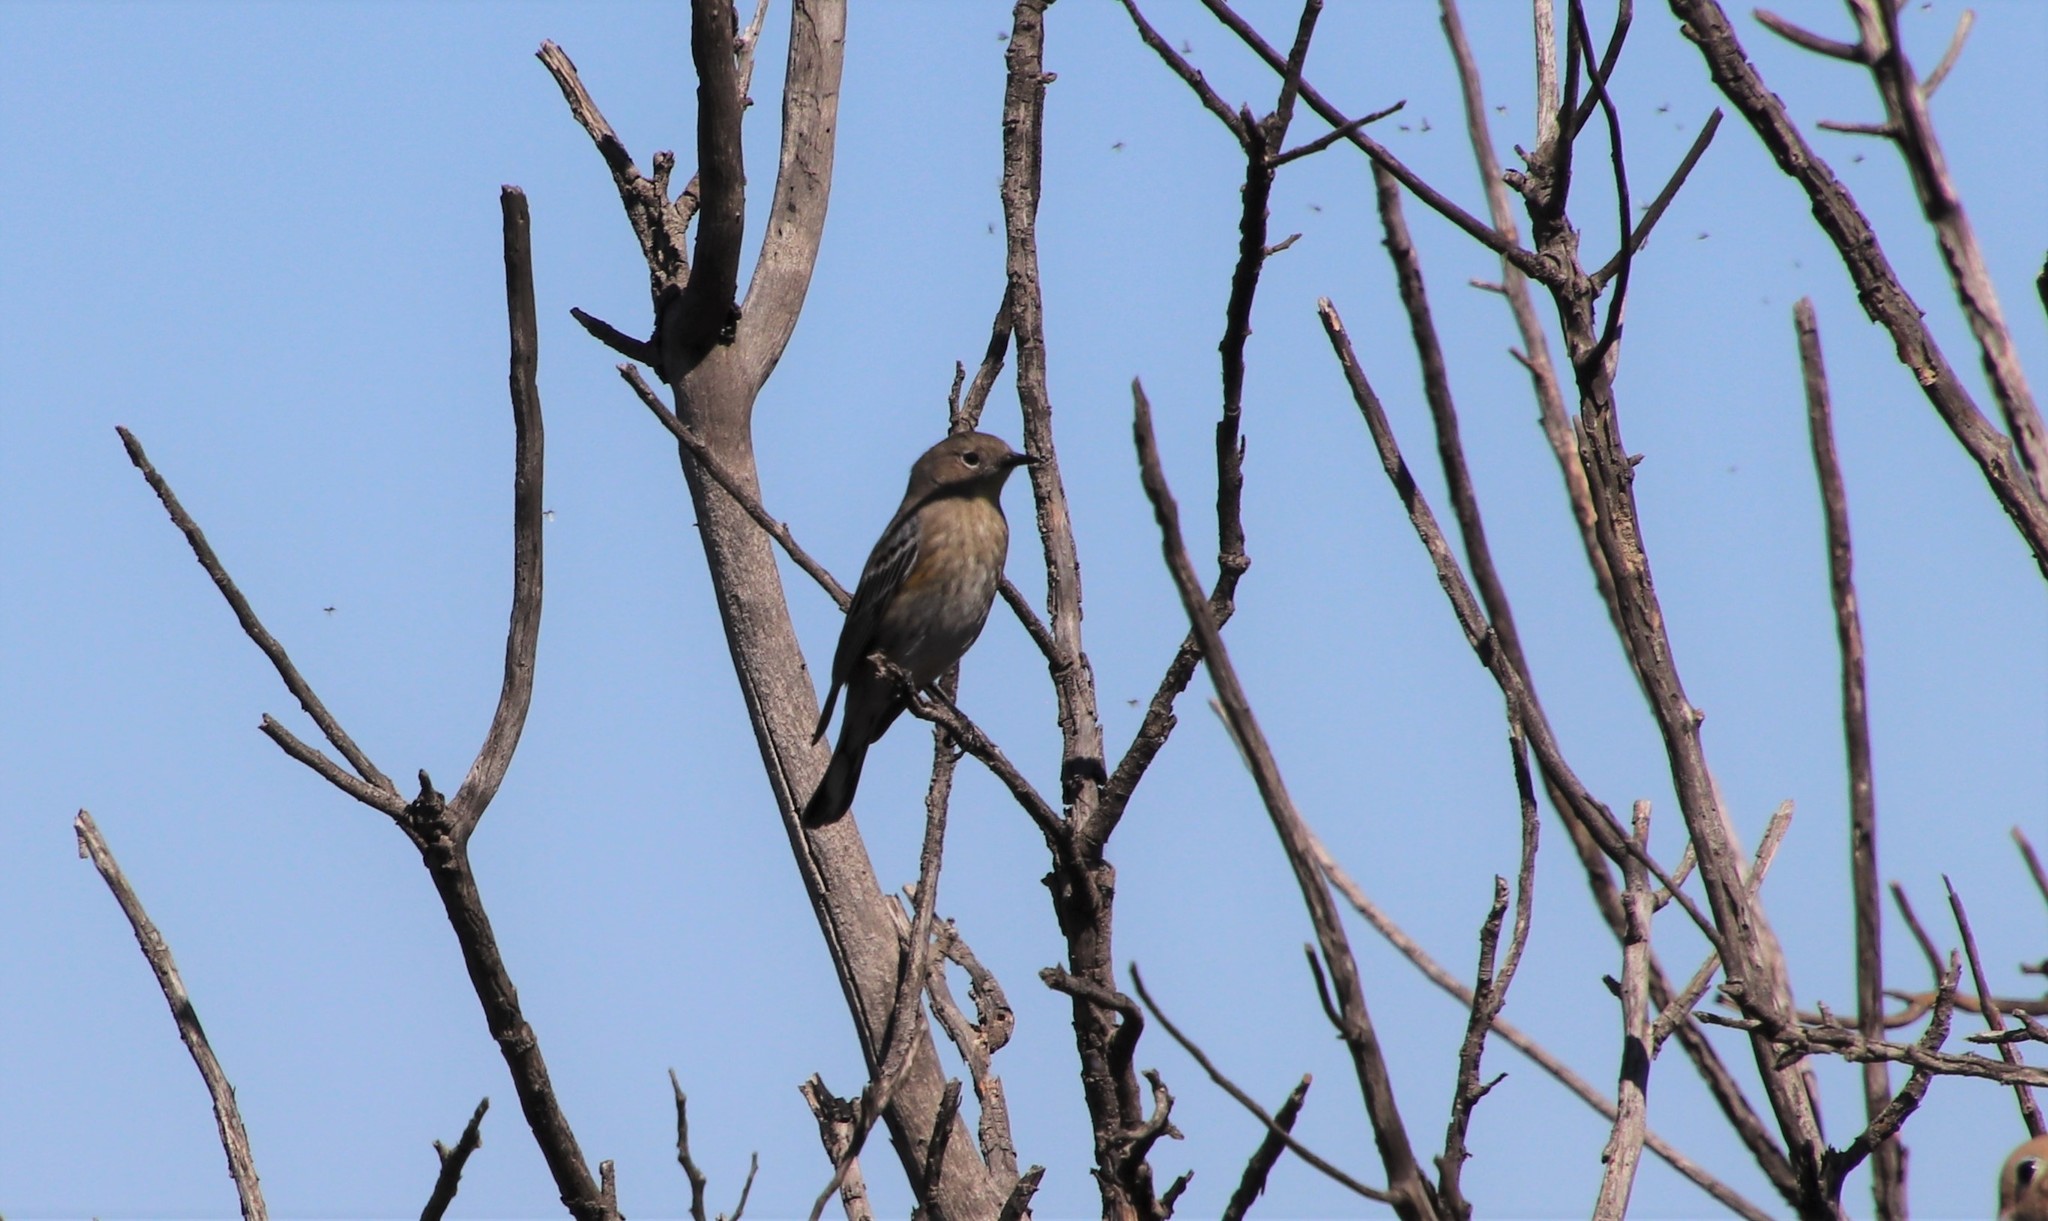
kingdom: Animalia
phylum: Chordata
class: Aves
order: Passeriformes
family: Parulidae
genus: Setophaga
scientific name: Setophaga coronata
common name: Myrtle warbler
